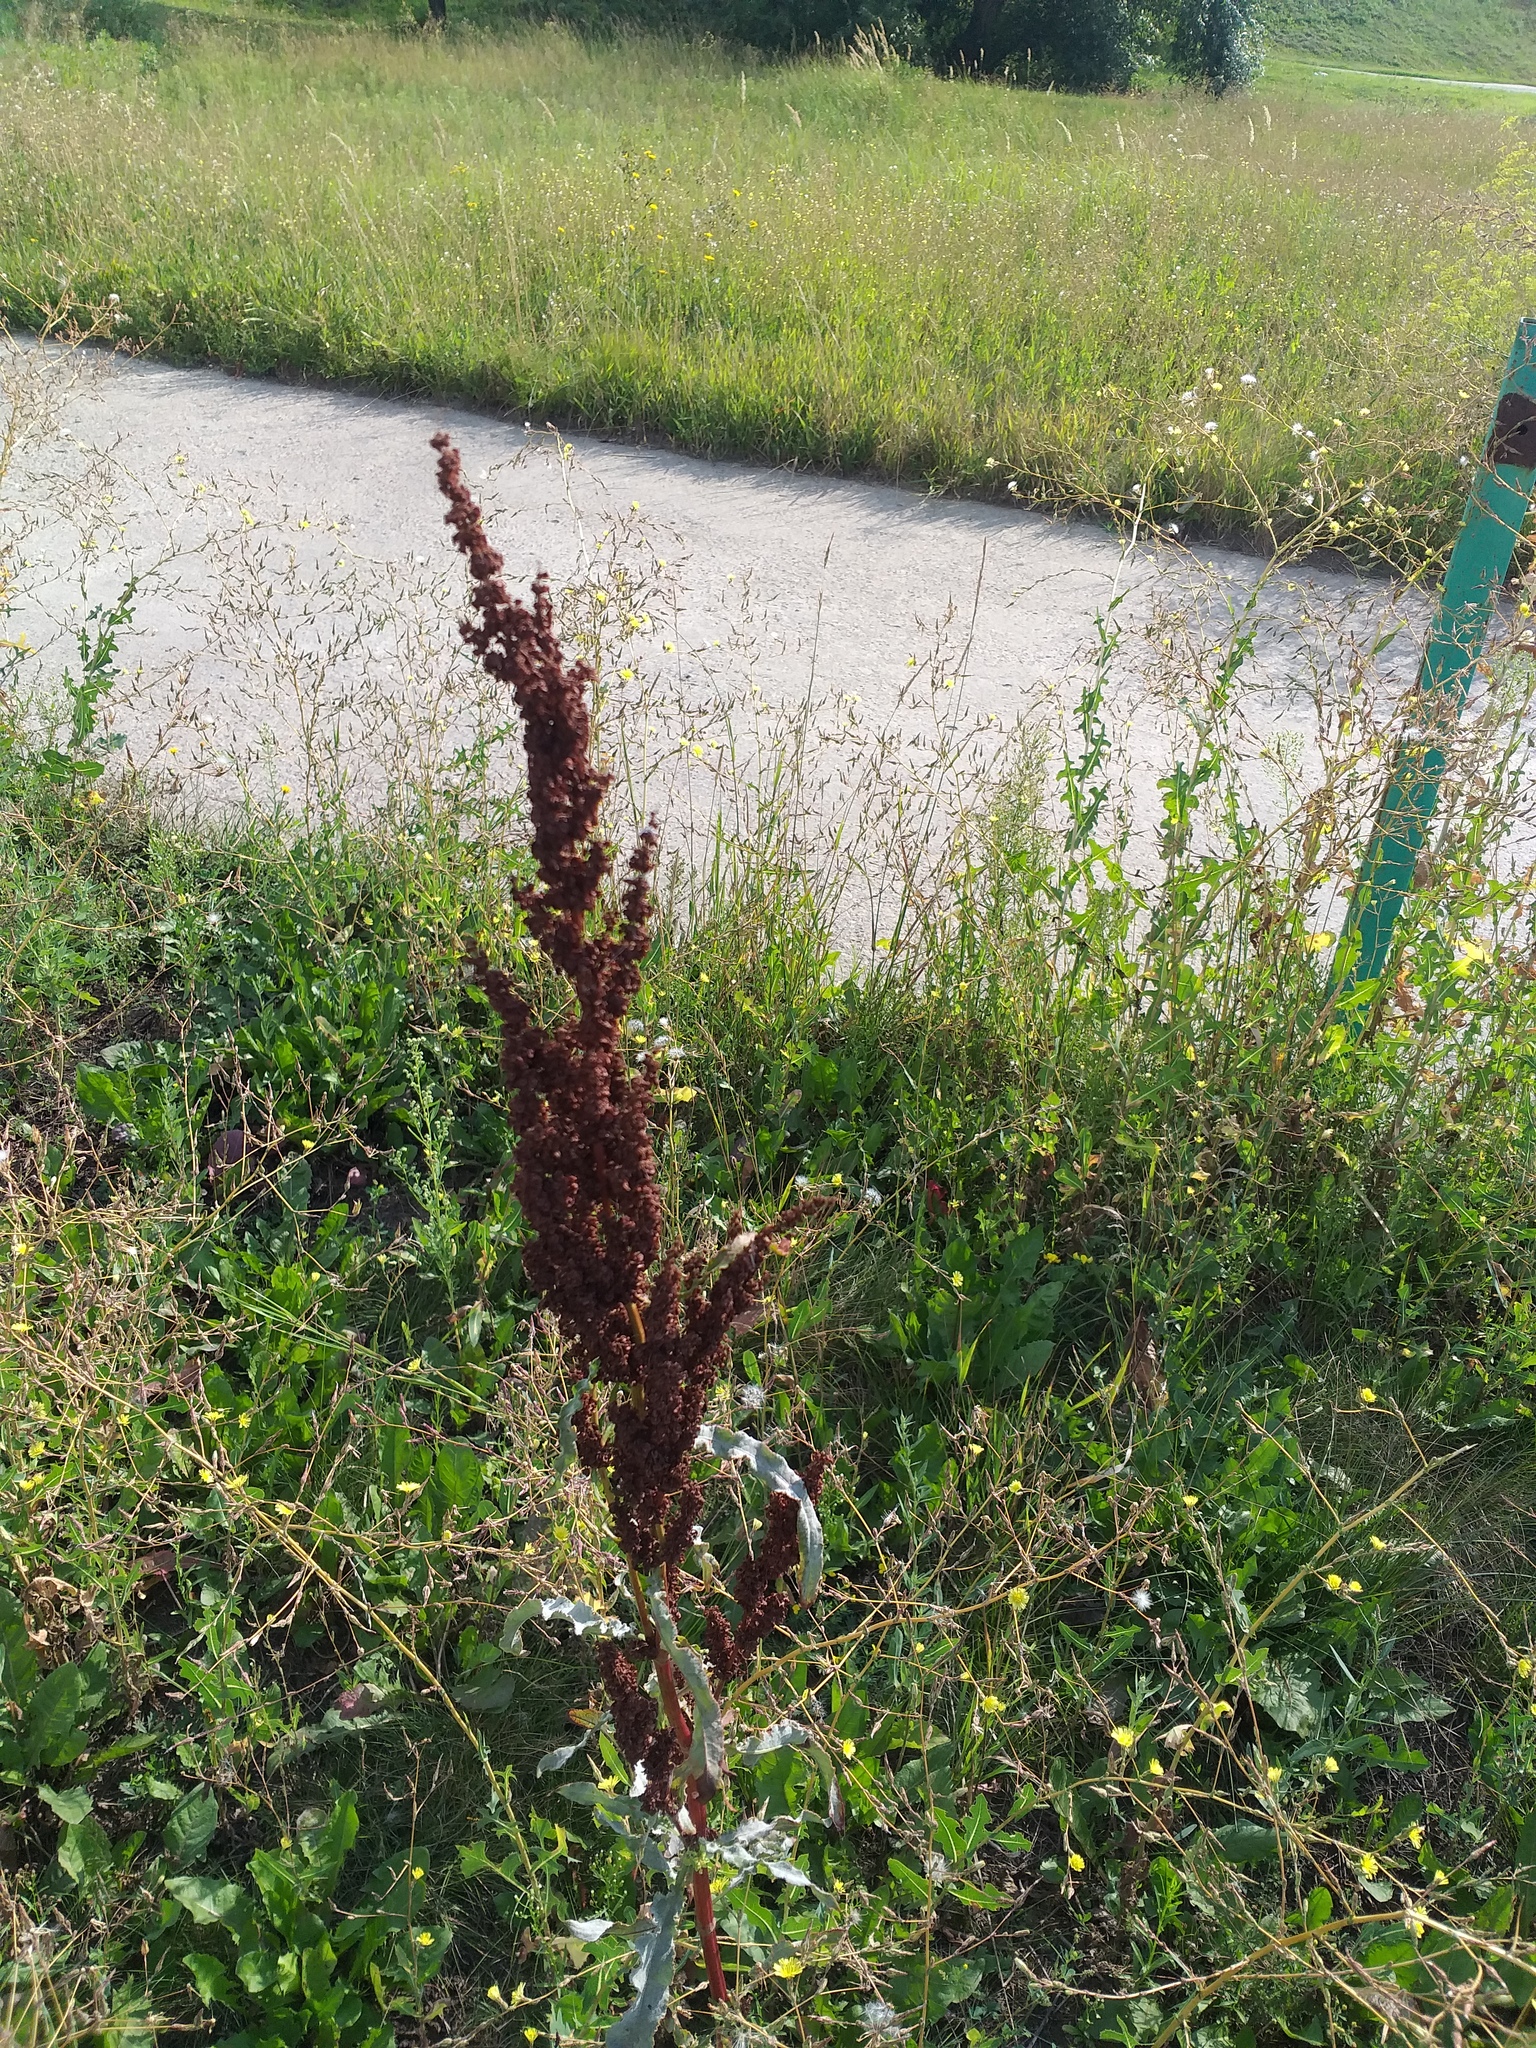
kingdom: Plantae
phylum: Tracheophyta
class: Magnoliopsida
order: Caryophyllales
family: Polygonaceae
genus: Rumex
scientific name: Rumex crispus
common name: Curled dock
